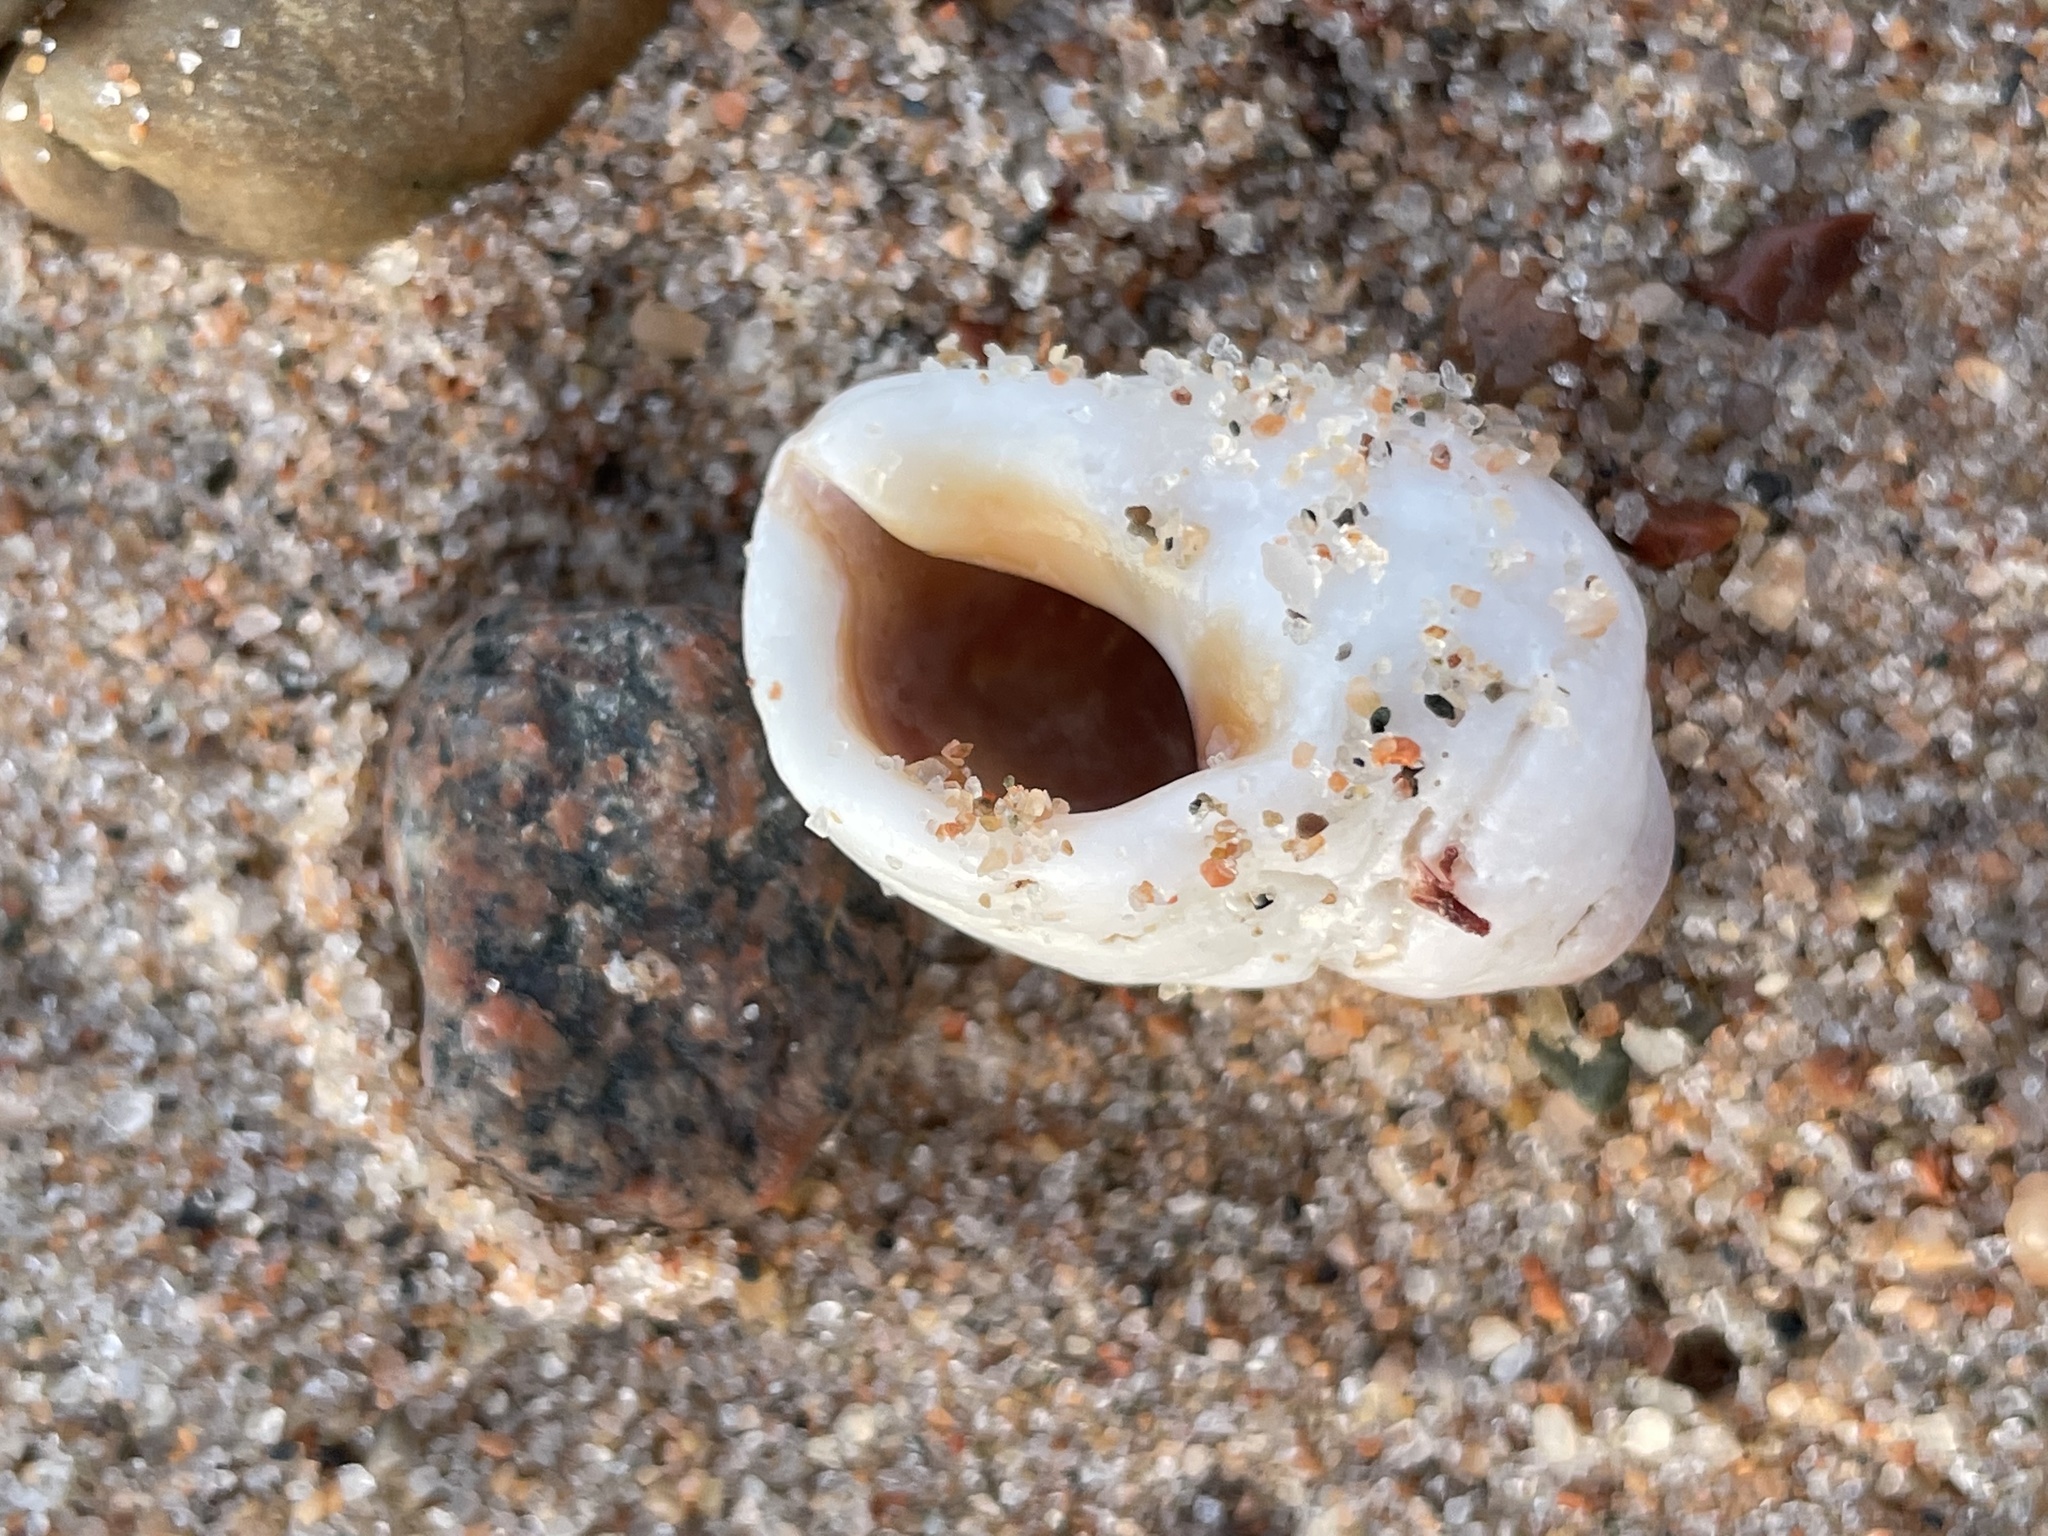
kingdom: Animalia
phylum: Mollusca
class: Gastropoda
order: Neogastropoda
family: Muricidae
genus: Nucella
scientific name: Nucella lapillus
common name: Dog whelk
